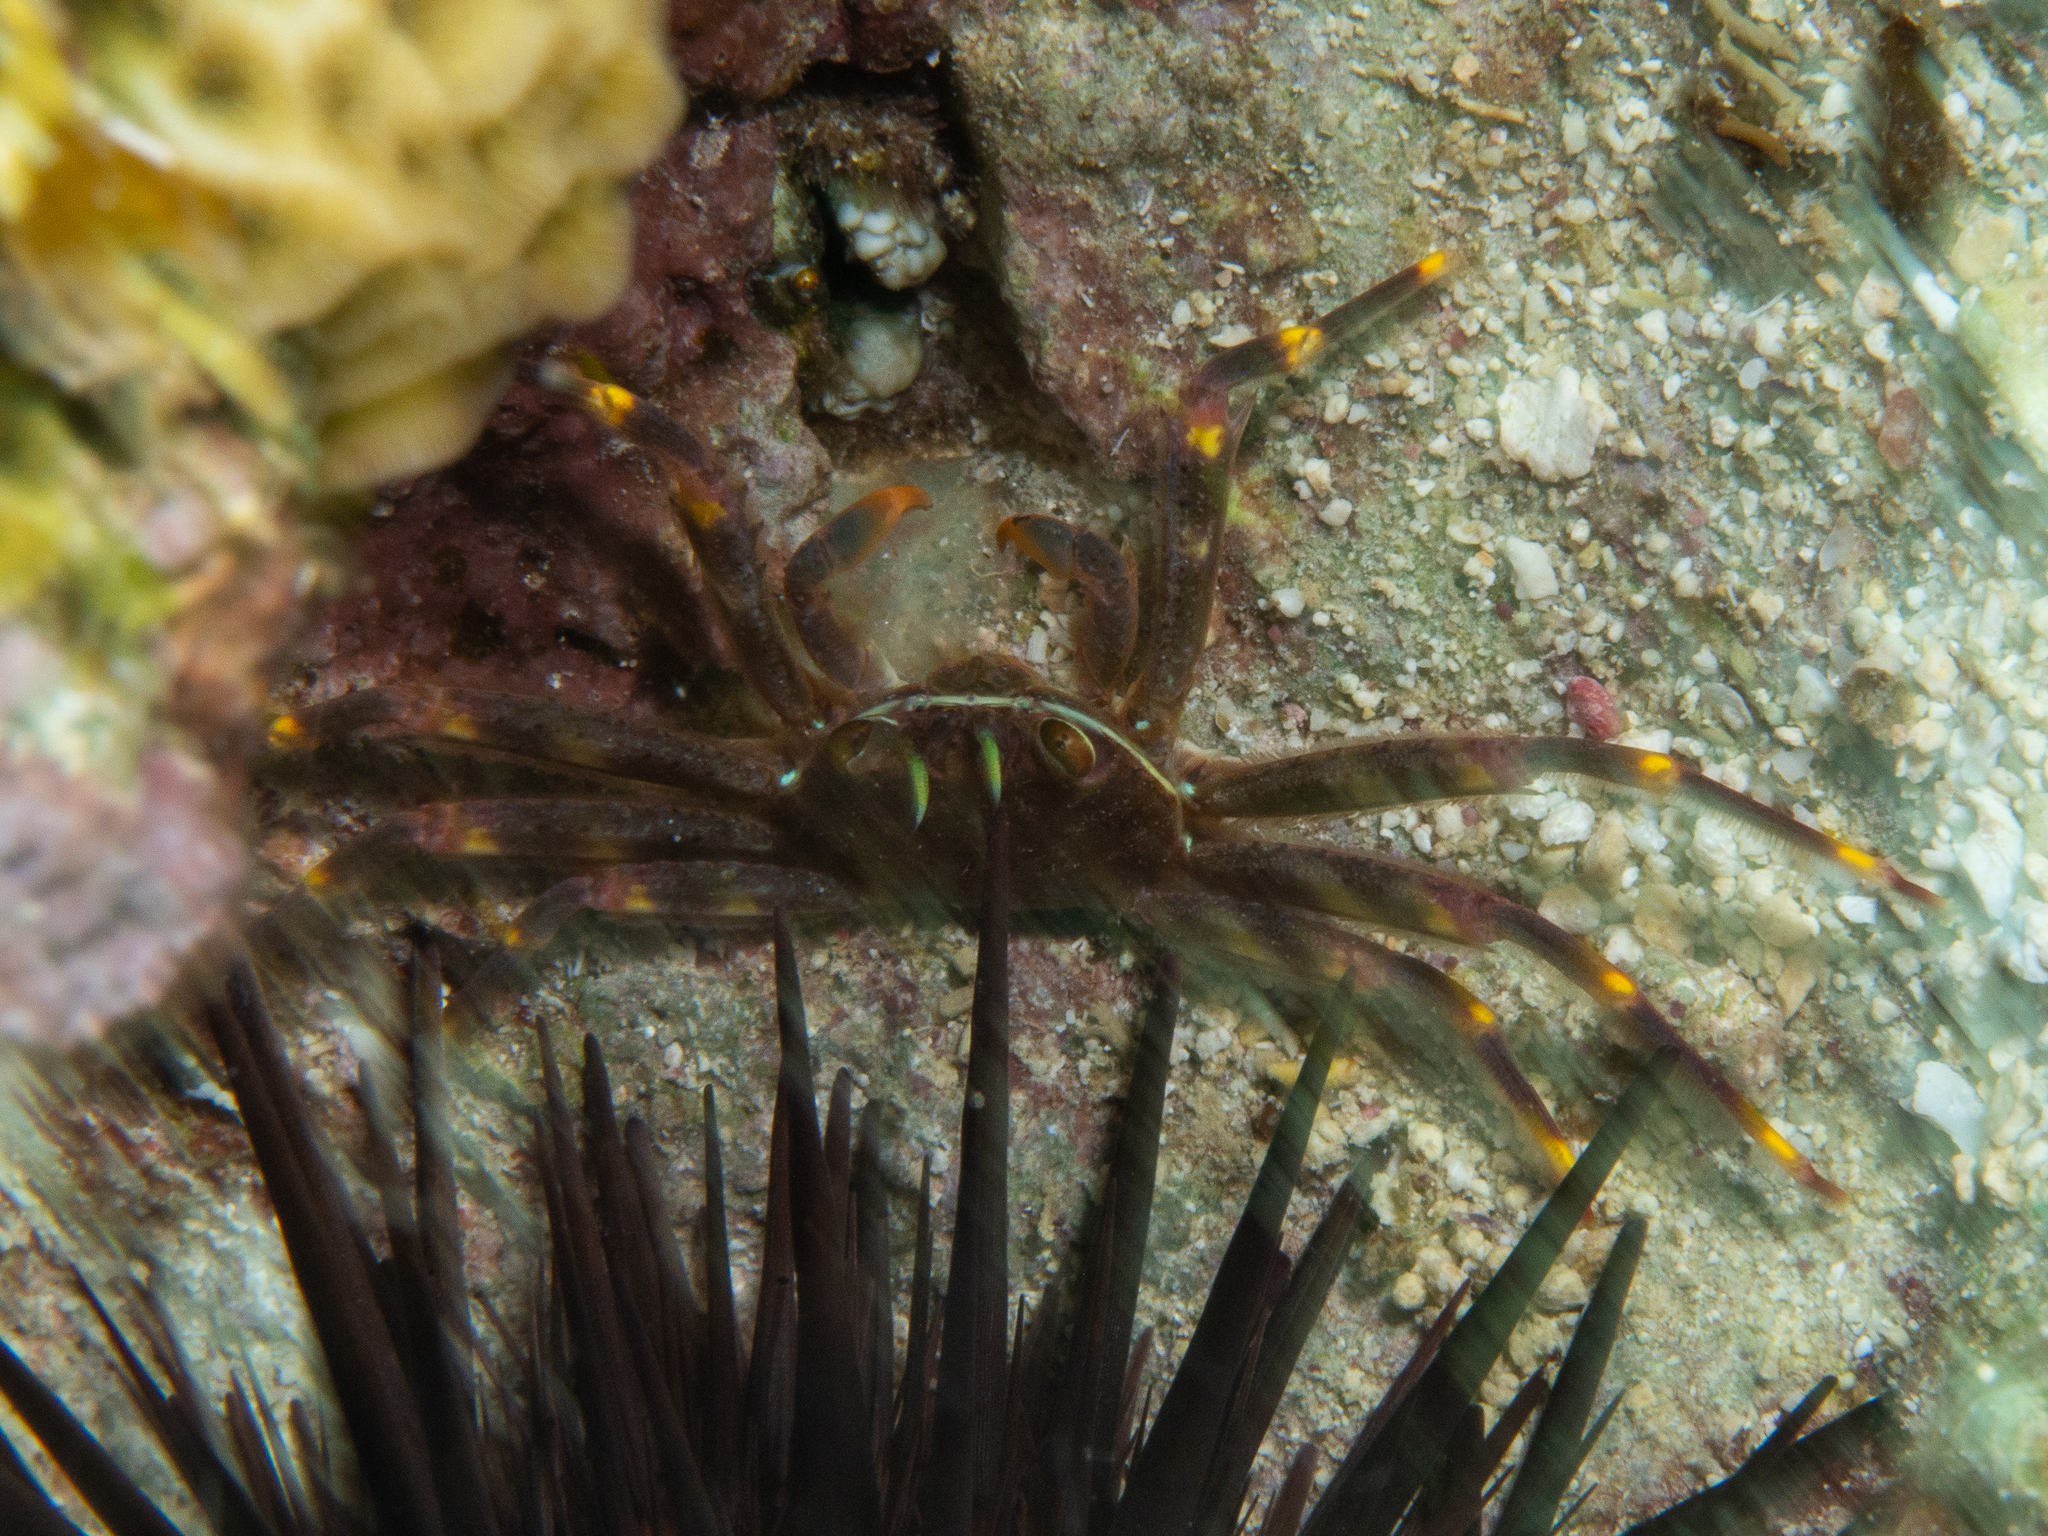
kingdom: Animalia
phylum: Arthropoda
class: Malacostraca
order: Decapoda
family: Percnidae
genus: Percnon
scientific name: Percnon gibbesi
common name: Nimble spray crab
